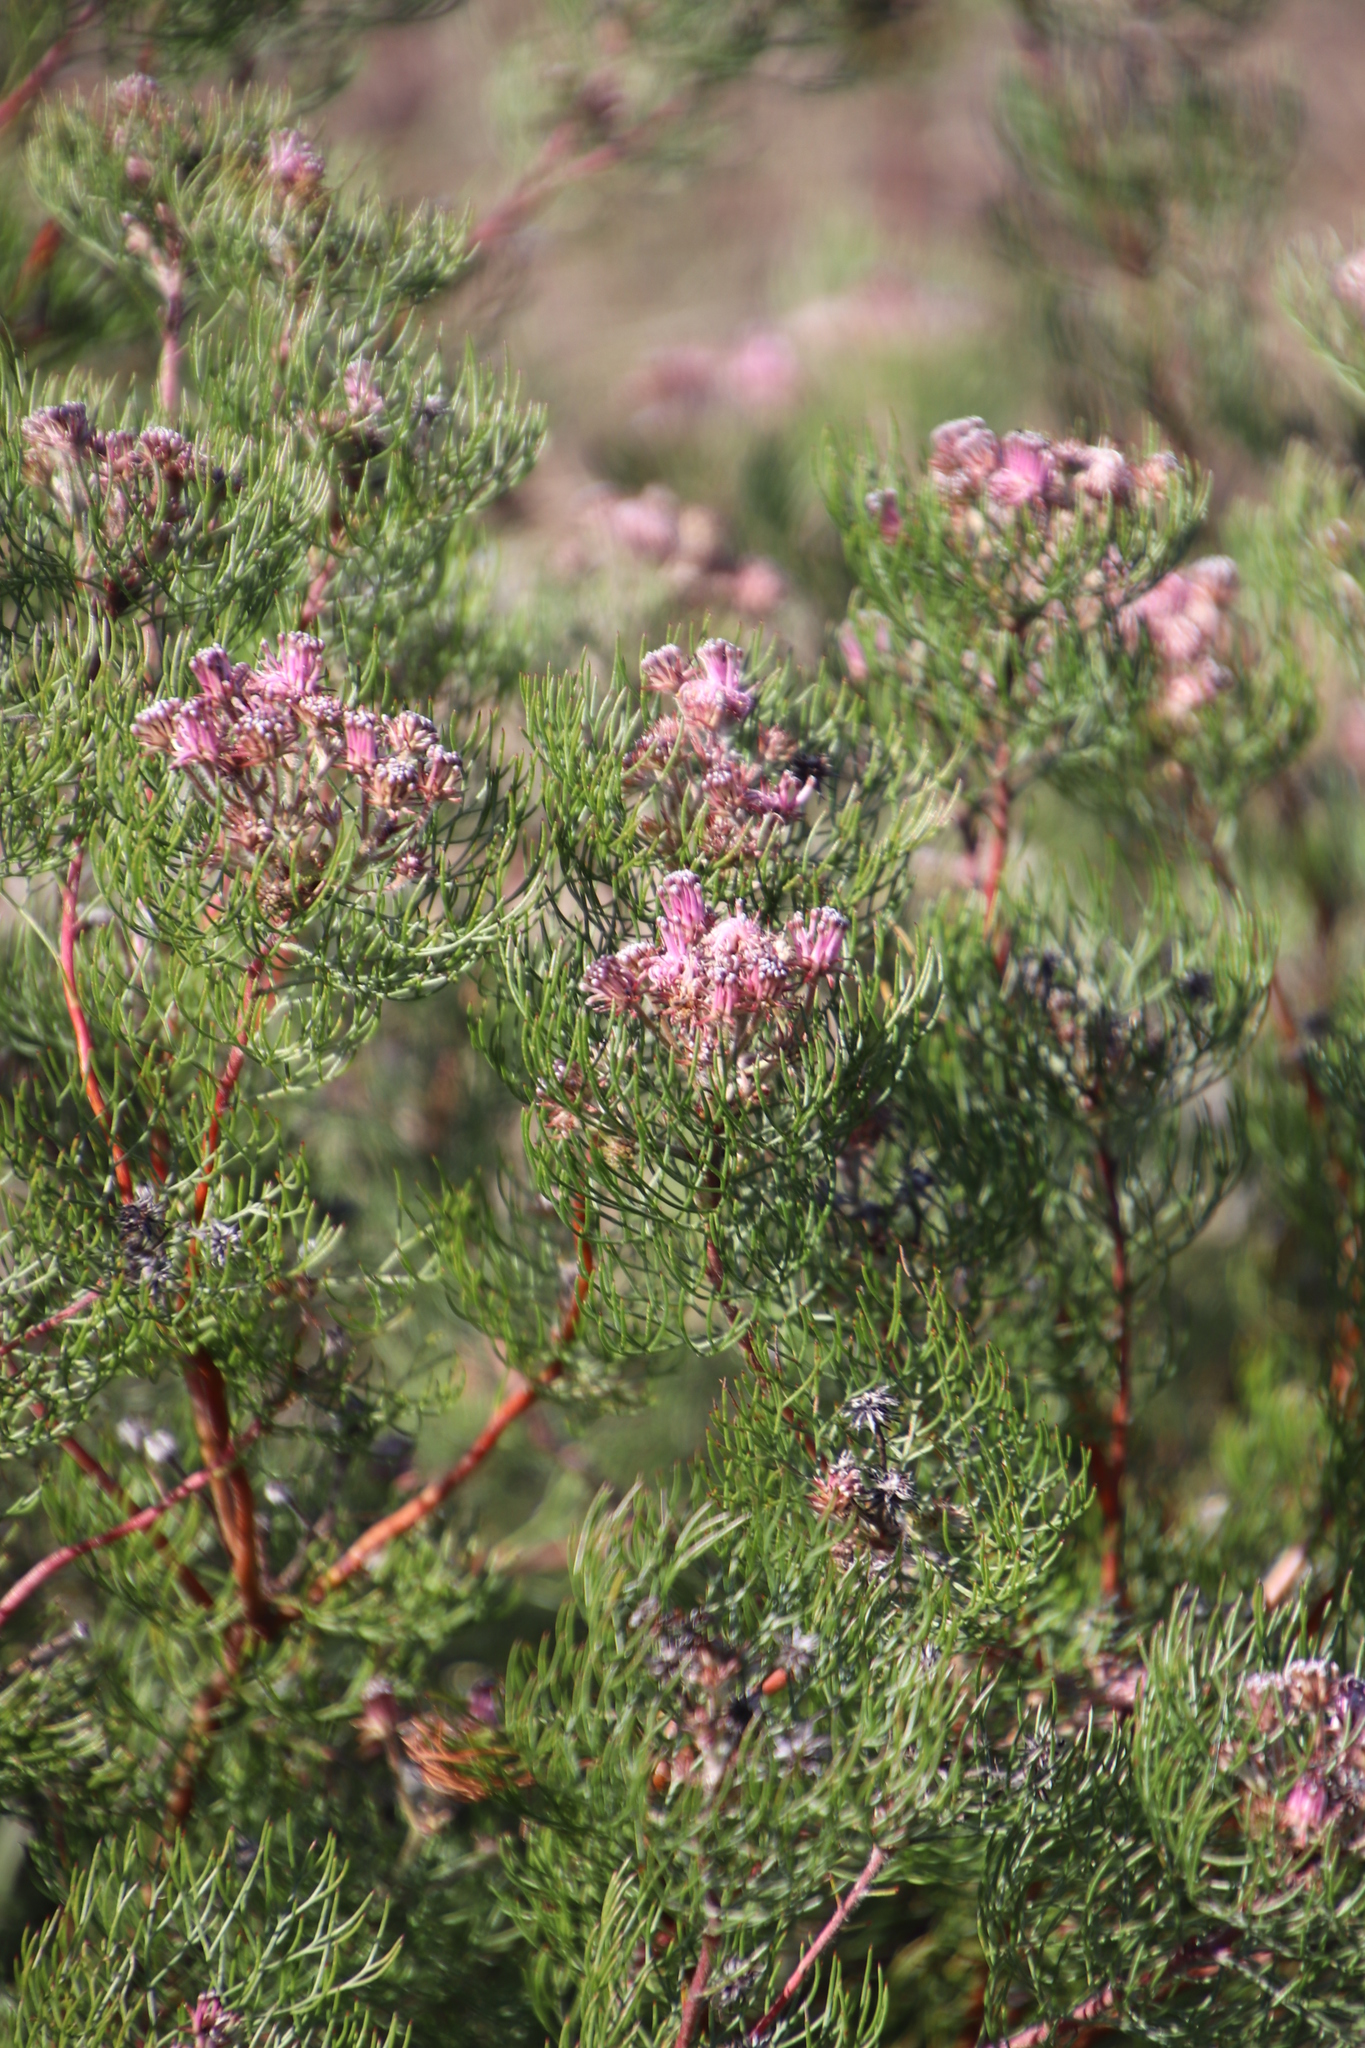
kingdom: Plantae
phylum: Tracheophyta
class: Magnoliopsida
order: Proteales
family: Proteaceae
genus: Serruria
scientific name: Serruria fasciflora
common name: Common pin spiderhead
